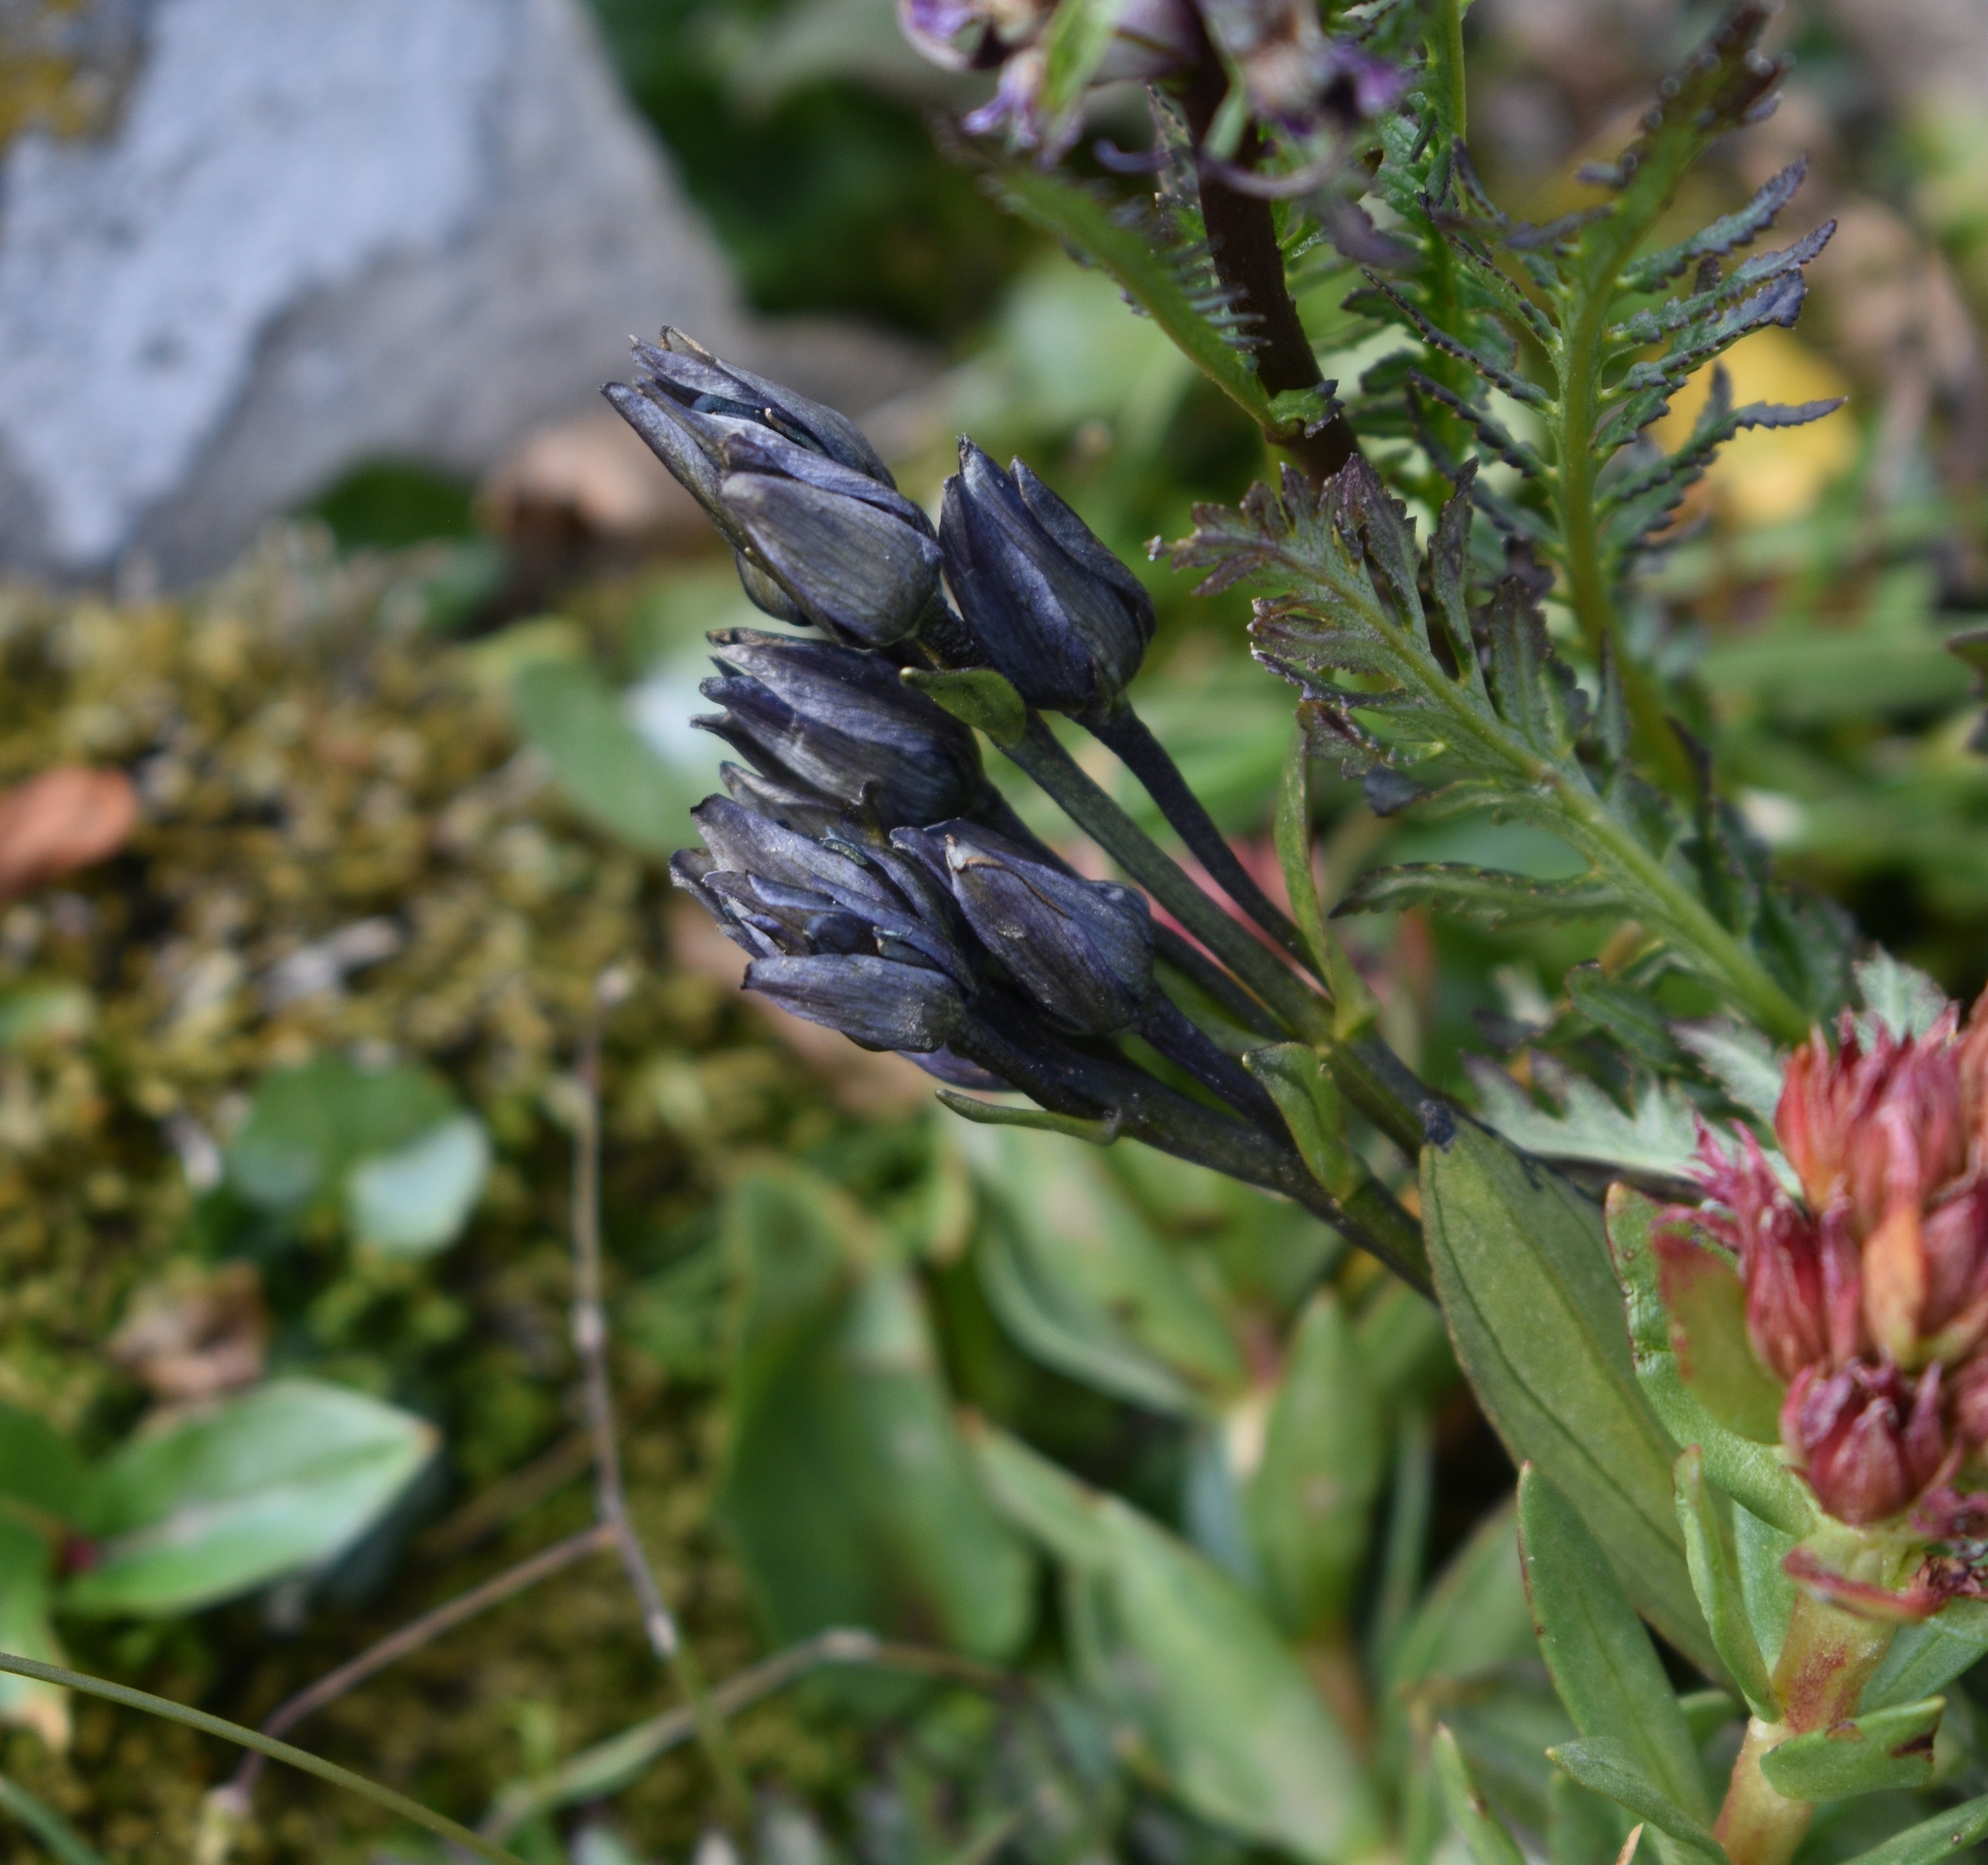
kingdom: Plantae
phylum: Tracheophyta
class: Magnoliopsida
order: Gentianales
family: Gentianaceae
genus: Swertia
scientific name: Swertia perennis
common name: Alpine bog swertia
